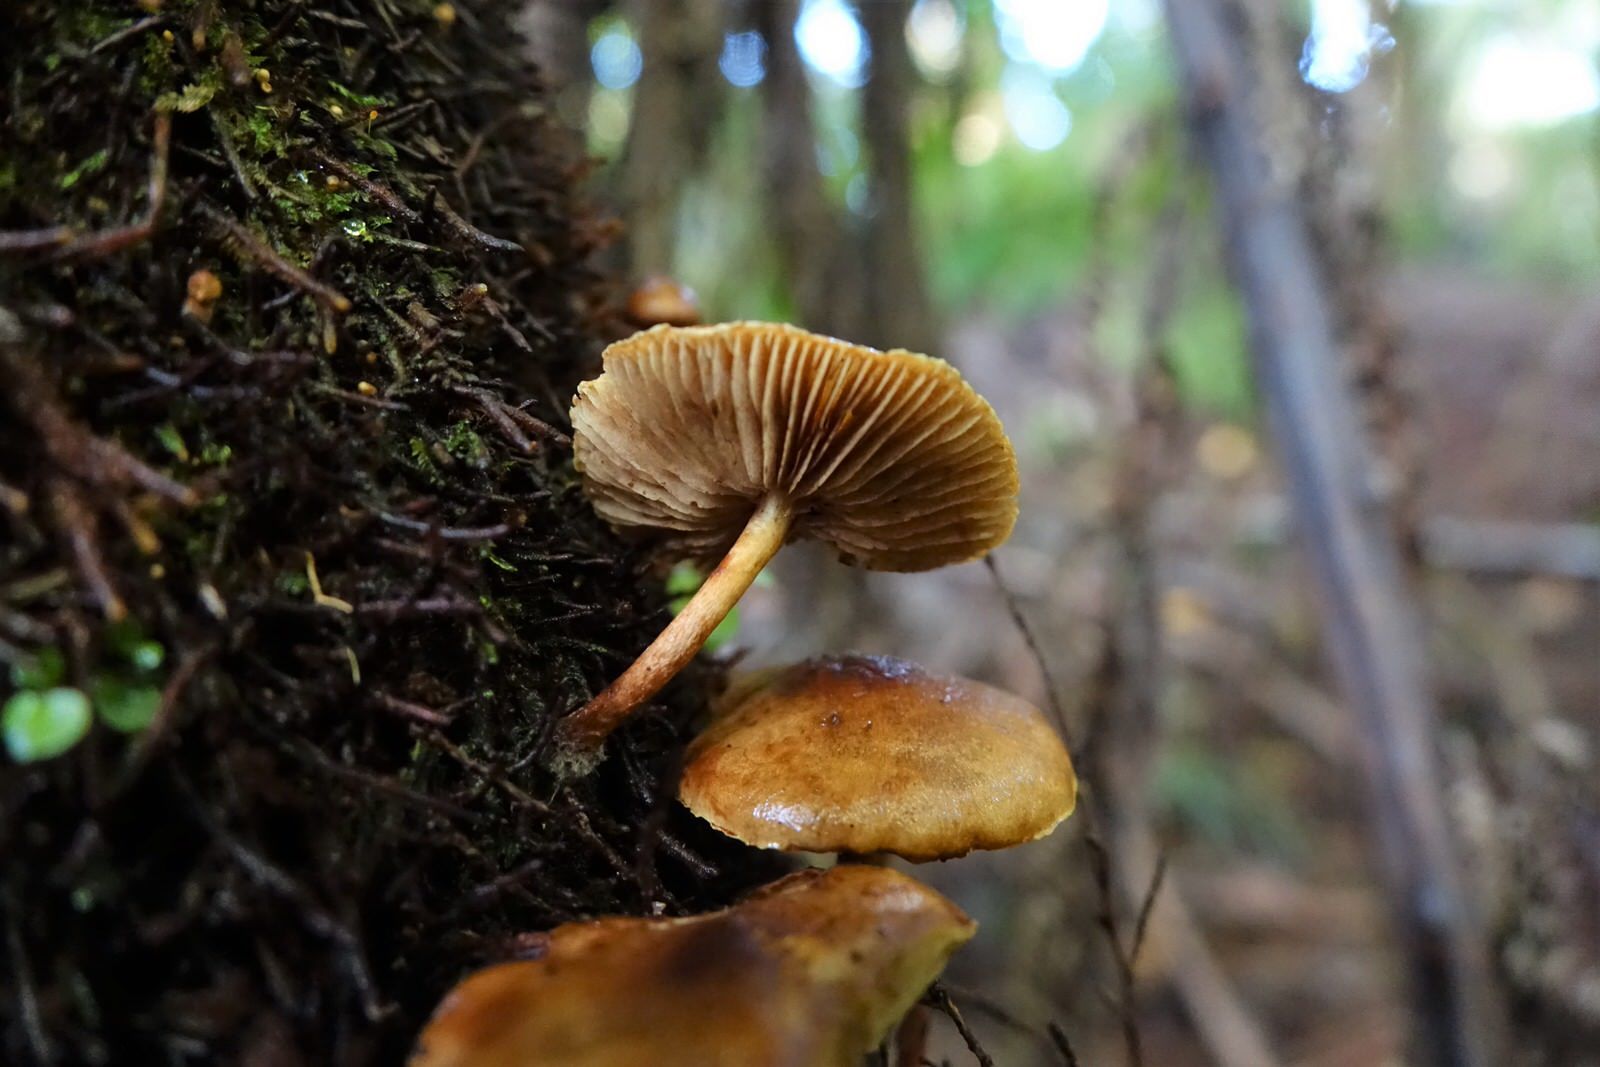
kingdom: Fungi
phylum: Basidiomycota
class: Agaricomycetes
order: Agaricales
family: Strophariaceae
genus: Hypholoma
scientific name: Hypholoma acutum
